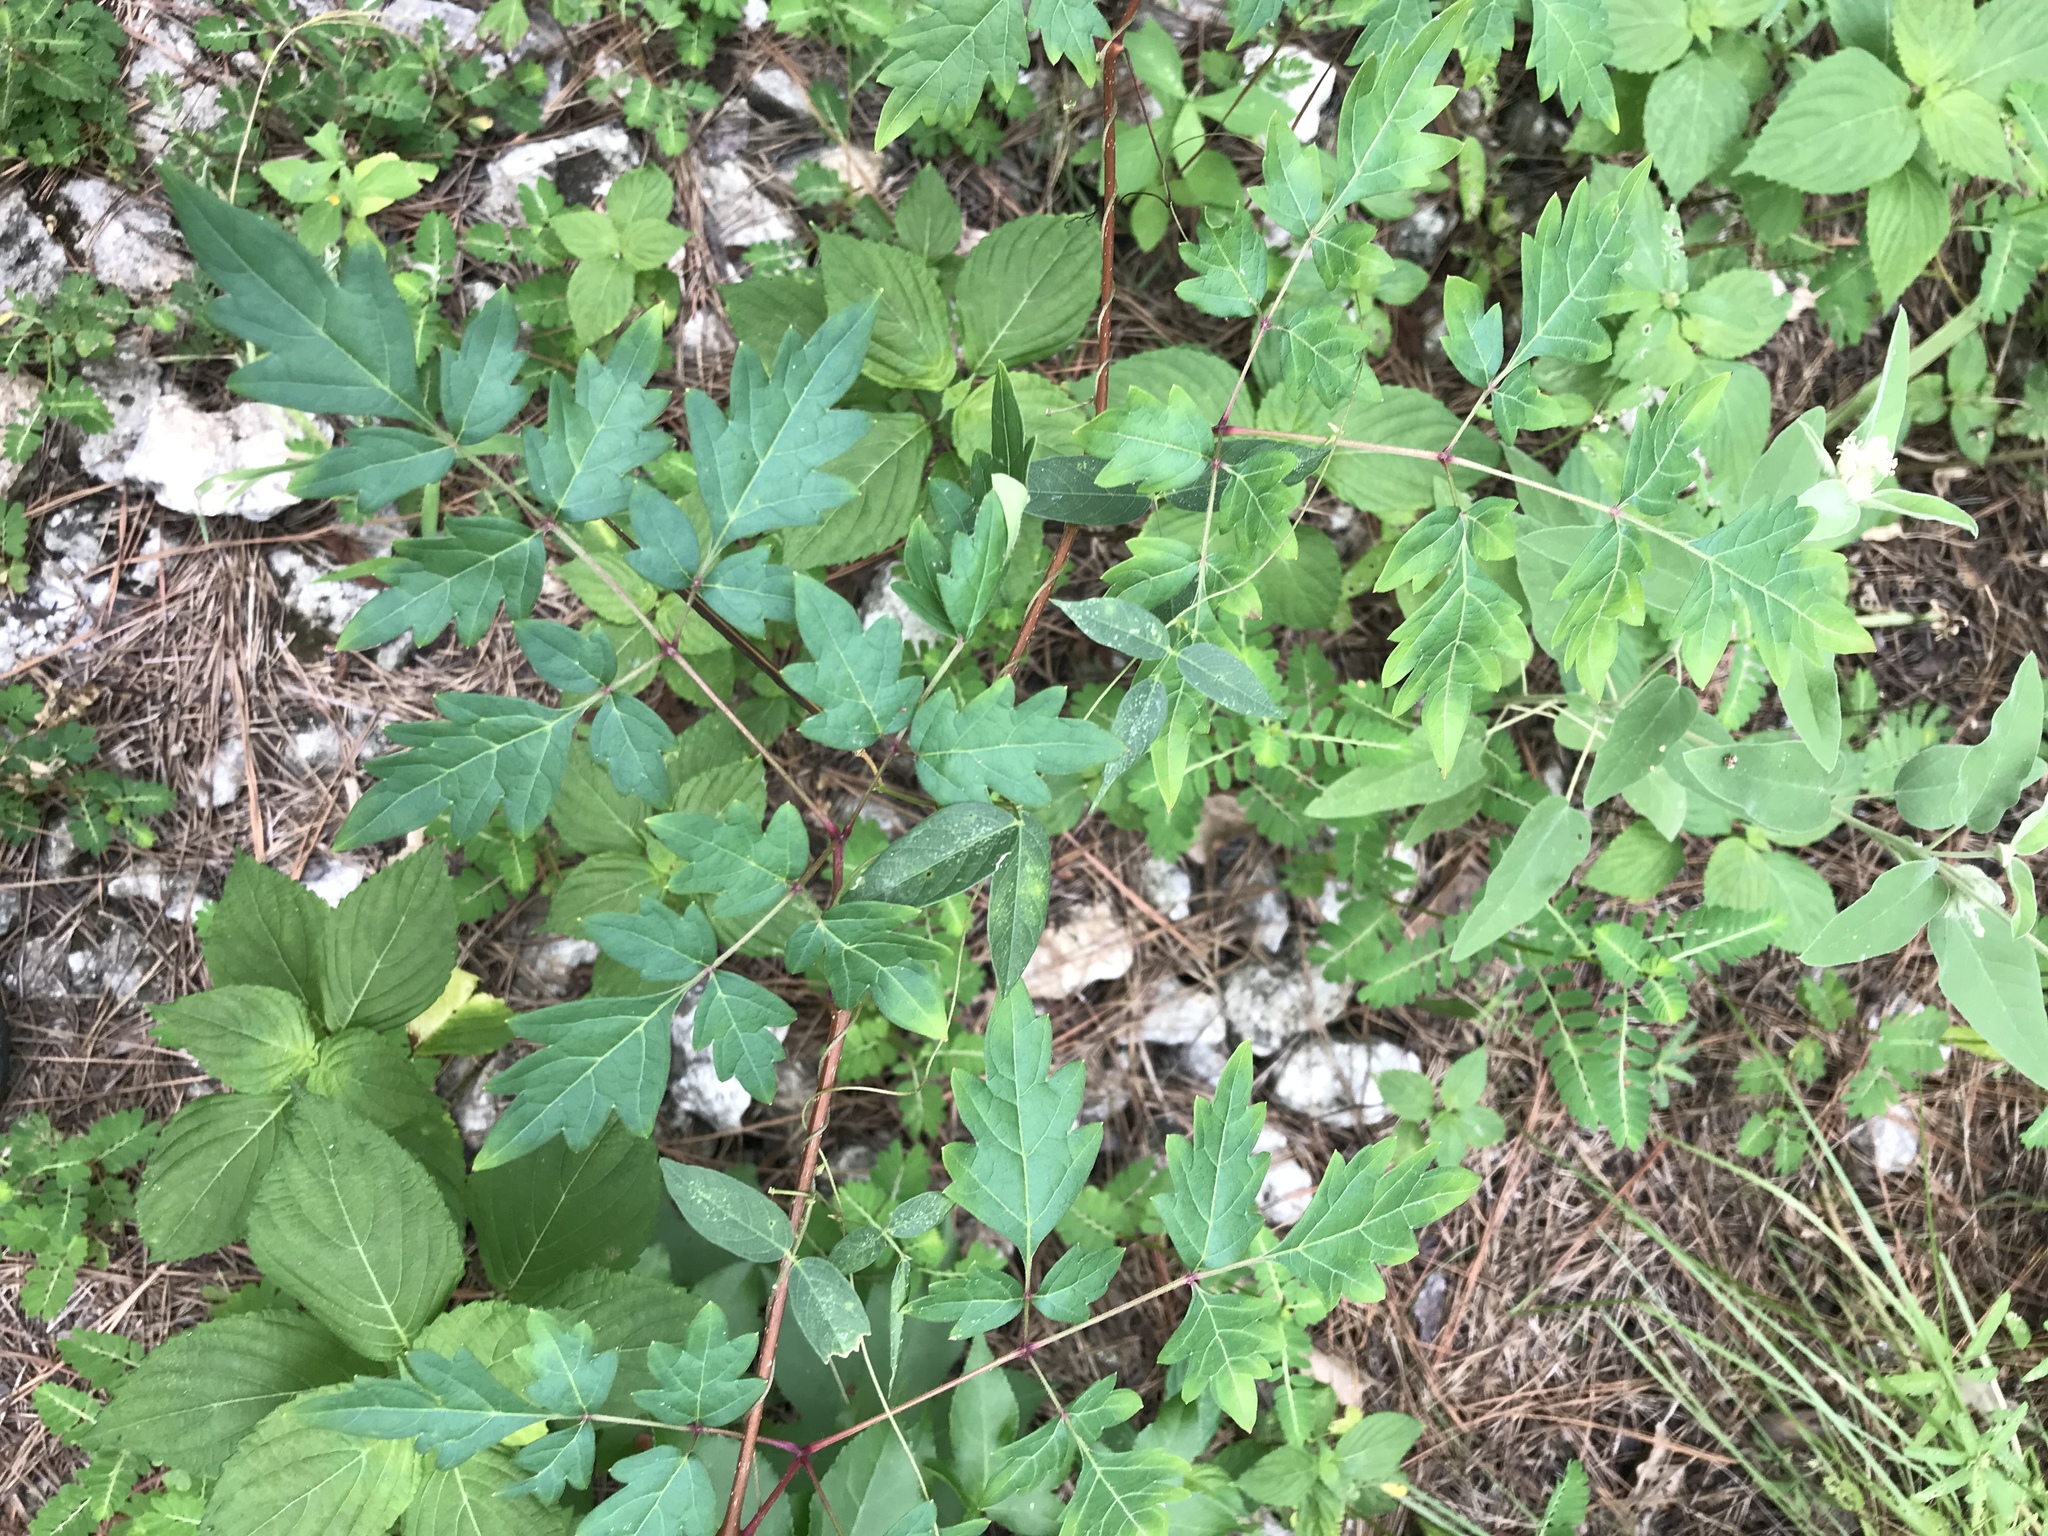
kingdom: Plantae
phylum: Tracheophyta
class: Magnoliopsida
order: Vitales
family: Vitaceae
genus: Nekemias
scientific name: Nekemias arborea
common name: Peppervine
